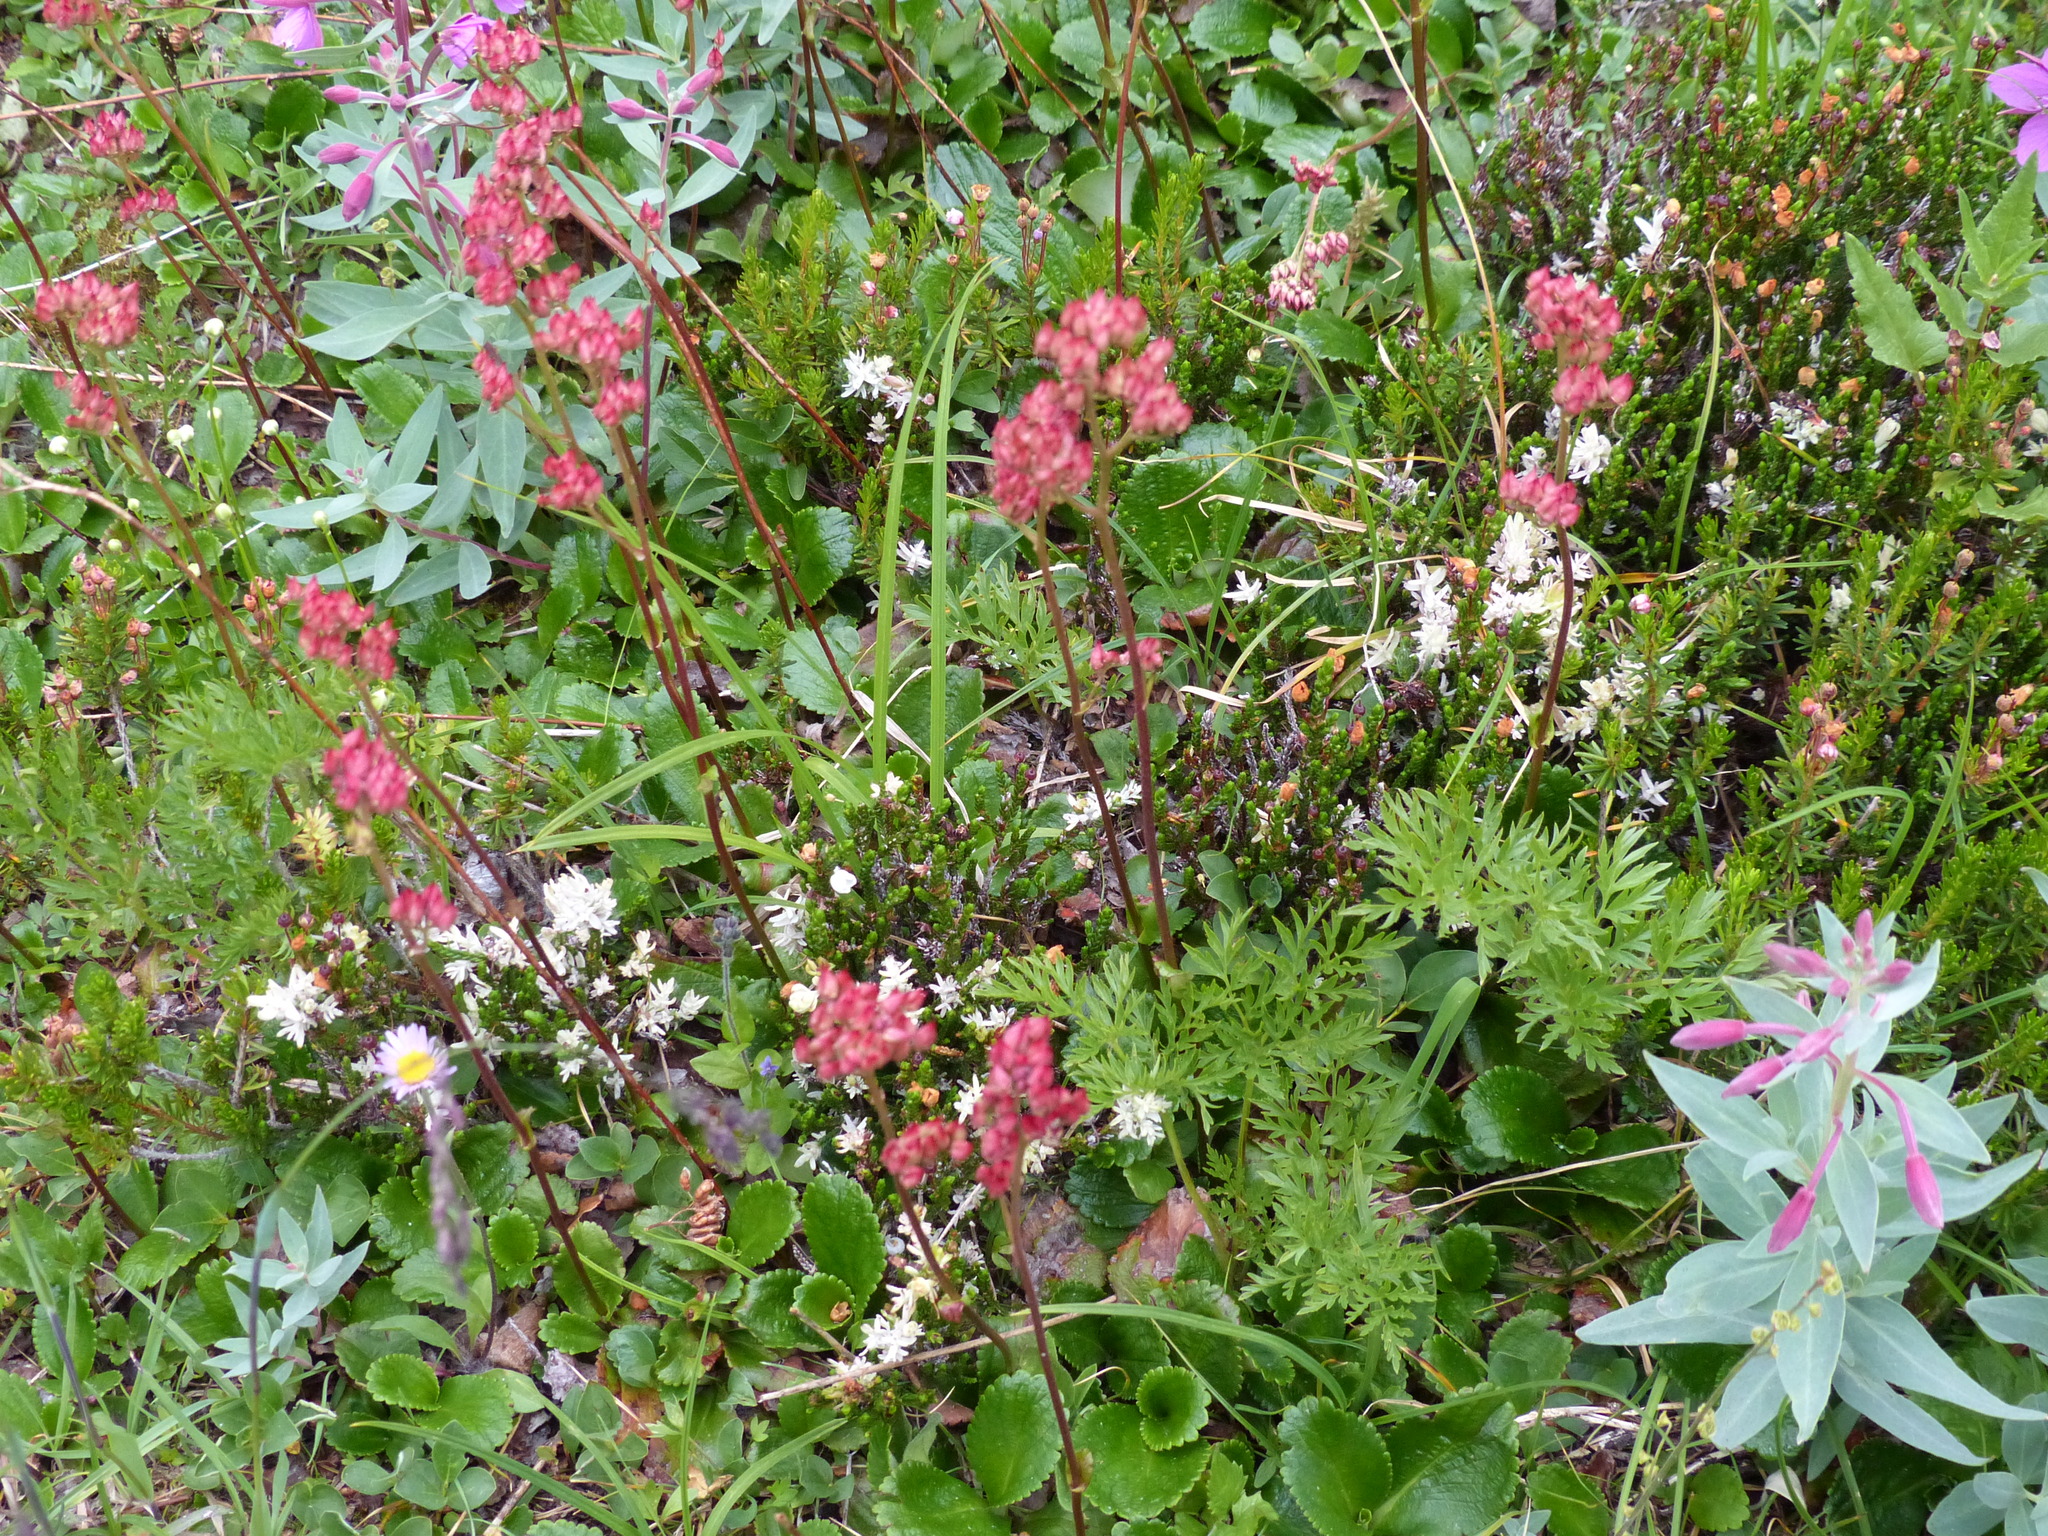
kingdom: Plantae
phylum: Tracheophyta
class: Magnoliopsida
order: Saxifragales
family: Saxifragaceae
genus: Leptarrhena
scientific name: Leptarrhena pyrolifolia
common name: Leatherleaf-saxifrage
